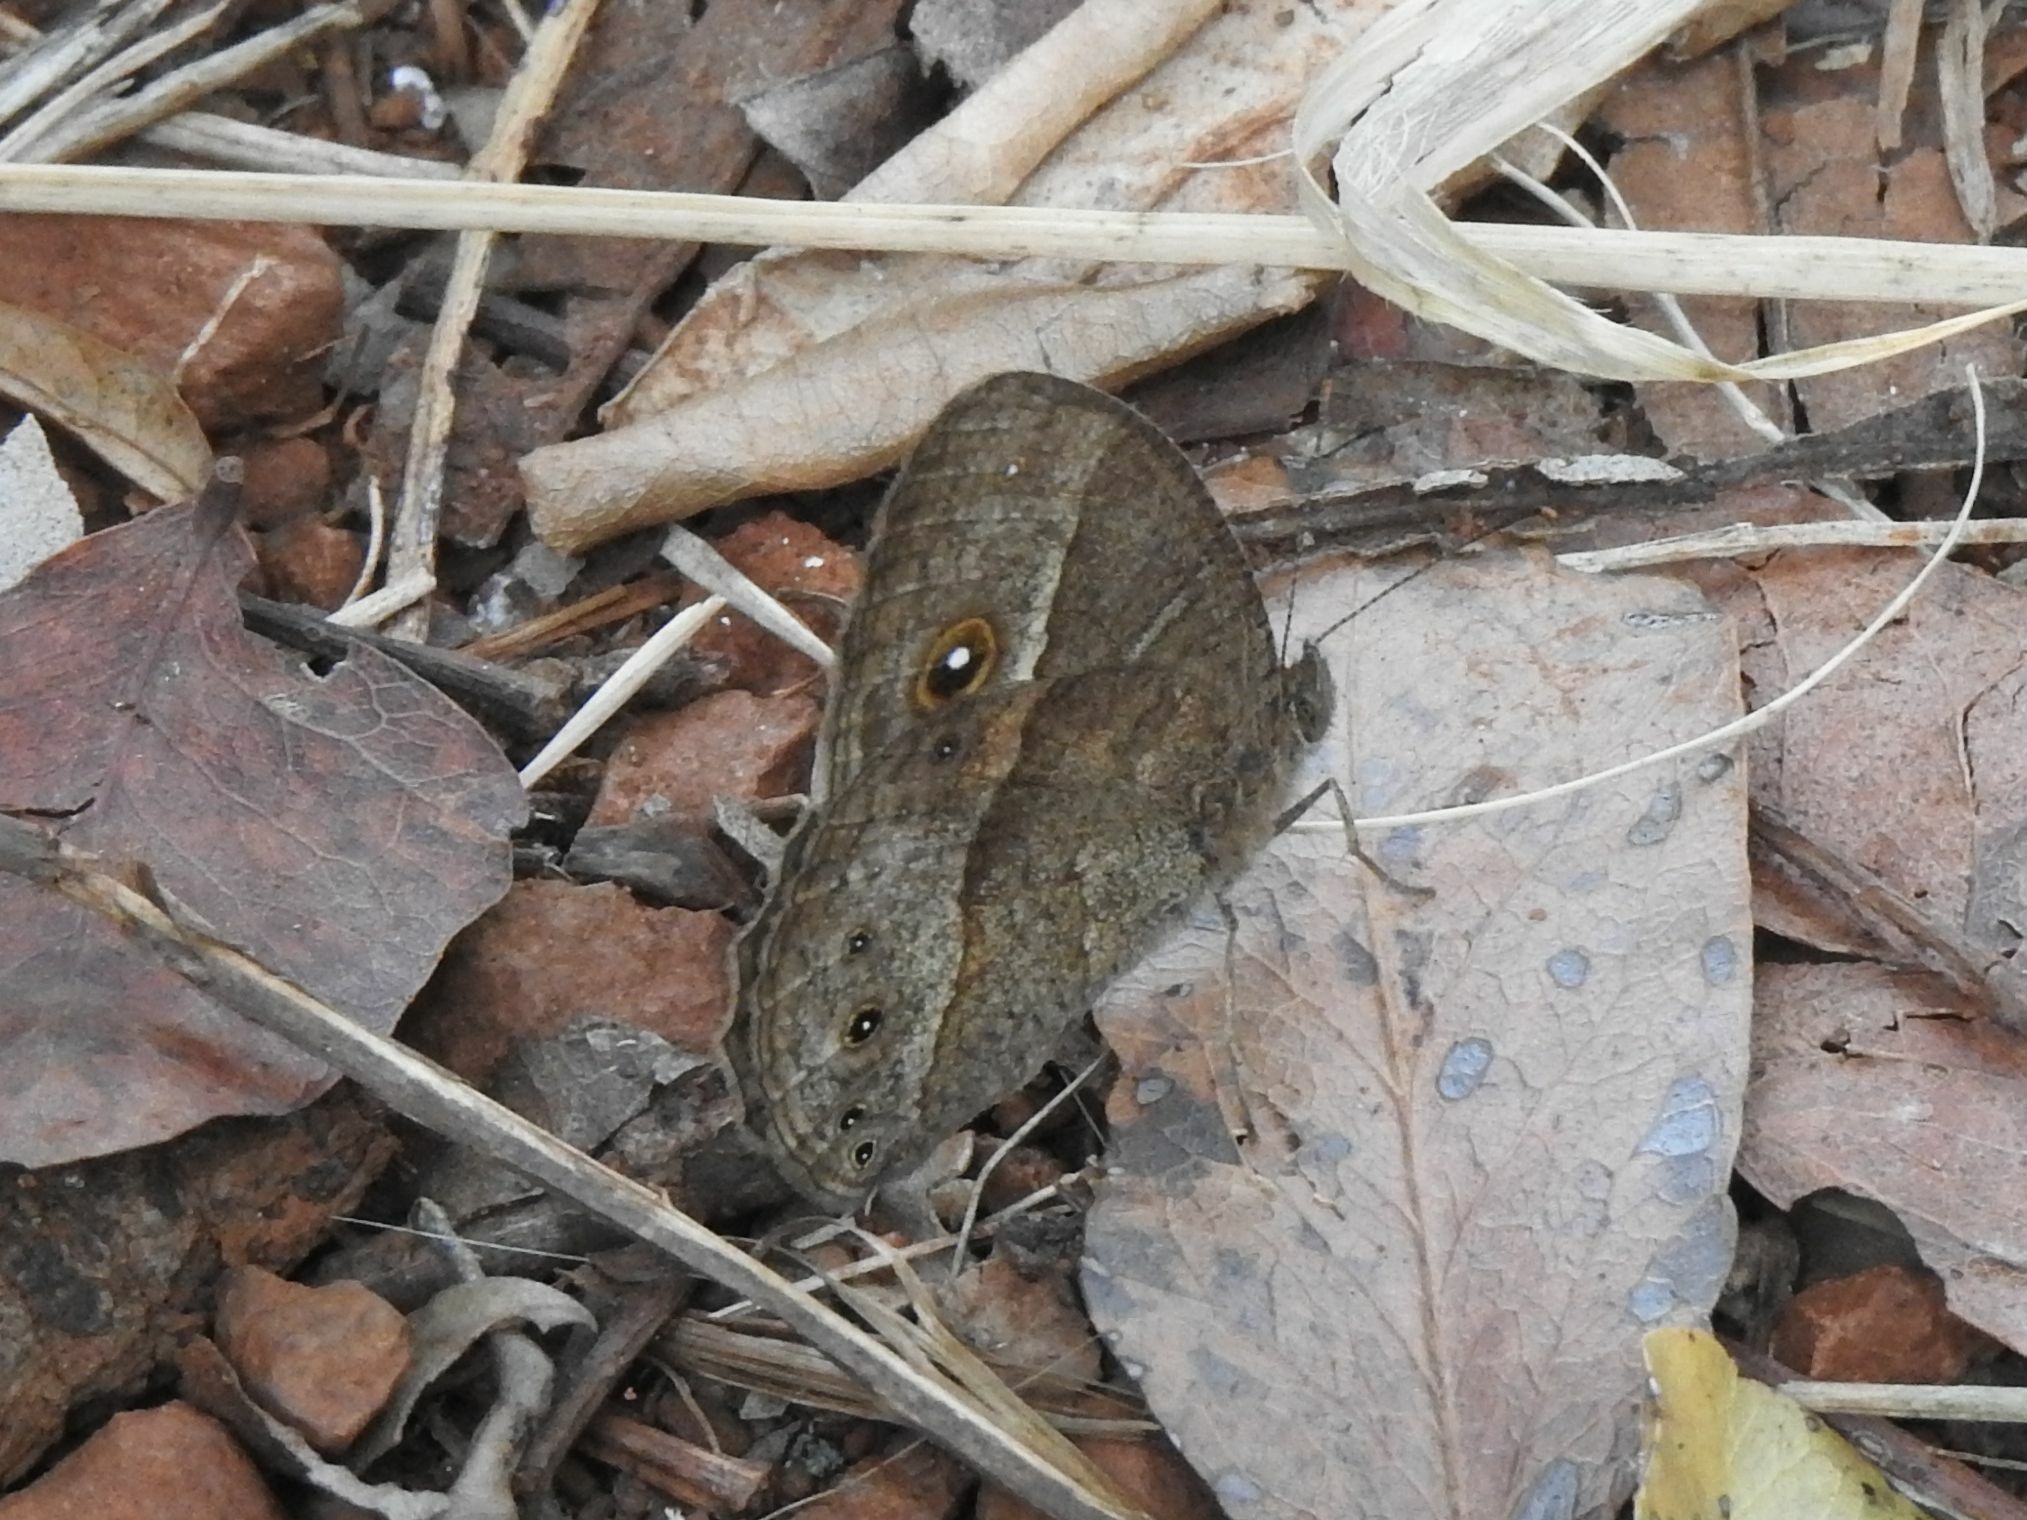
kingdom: Animalia
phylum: Arthropoda
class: Insecta
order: Lepidoptera
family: Nymphalidae
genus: Mycalesis
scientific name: Mycalesis anynana
